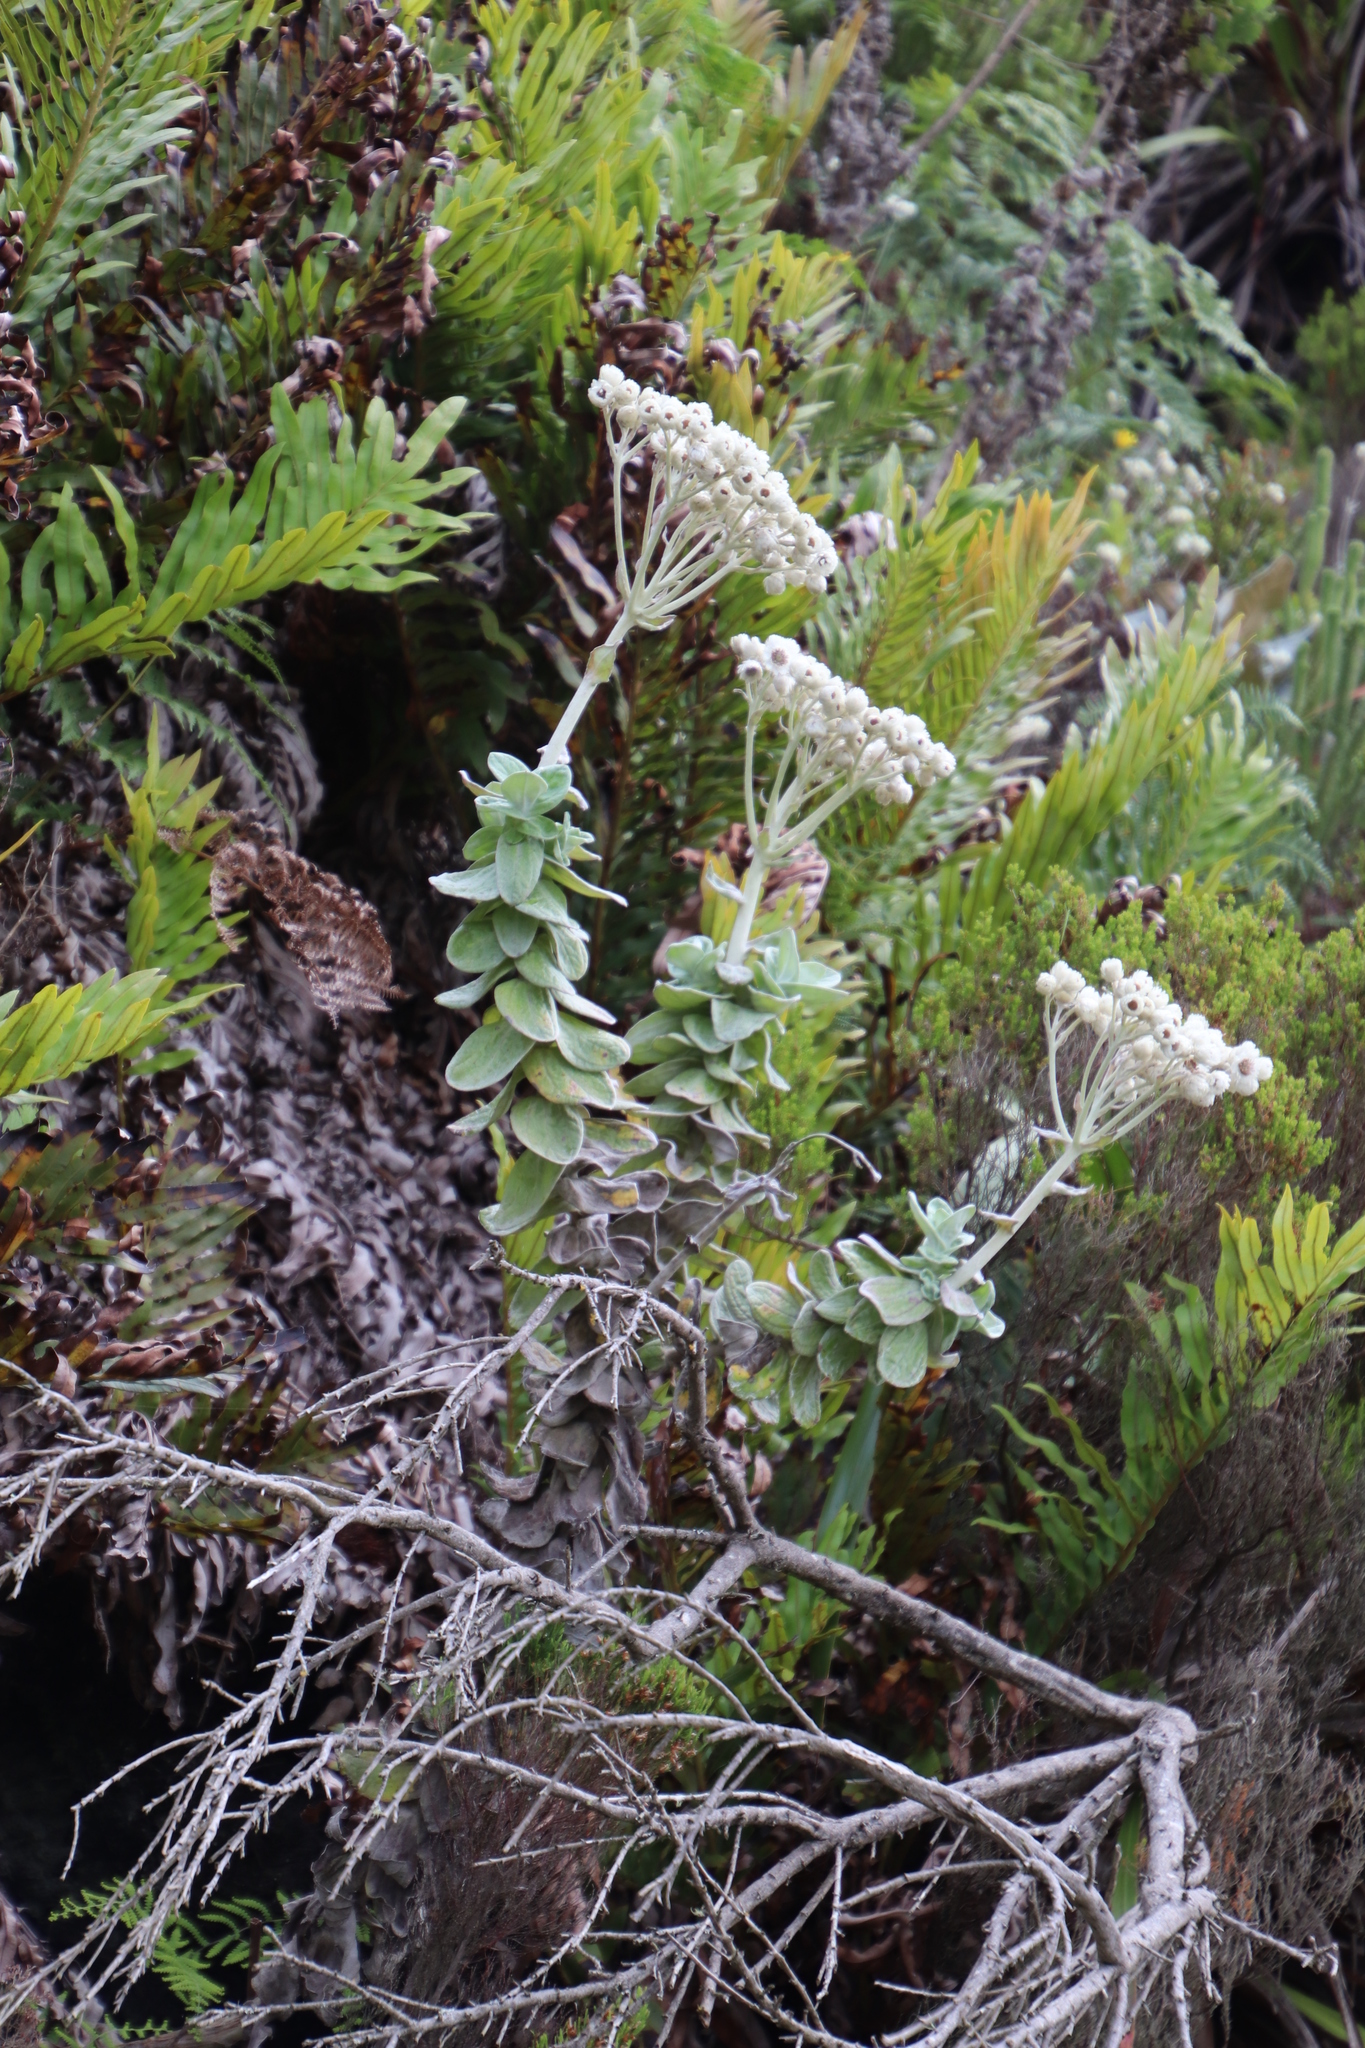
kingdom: Plantae
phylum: Tracheophyta
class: Magnoliopsida
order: Asterales
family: Asteraceae
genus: Helichrysum
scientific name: Helichrysum fruticans
